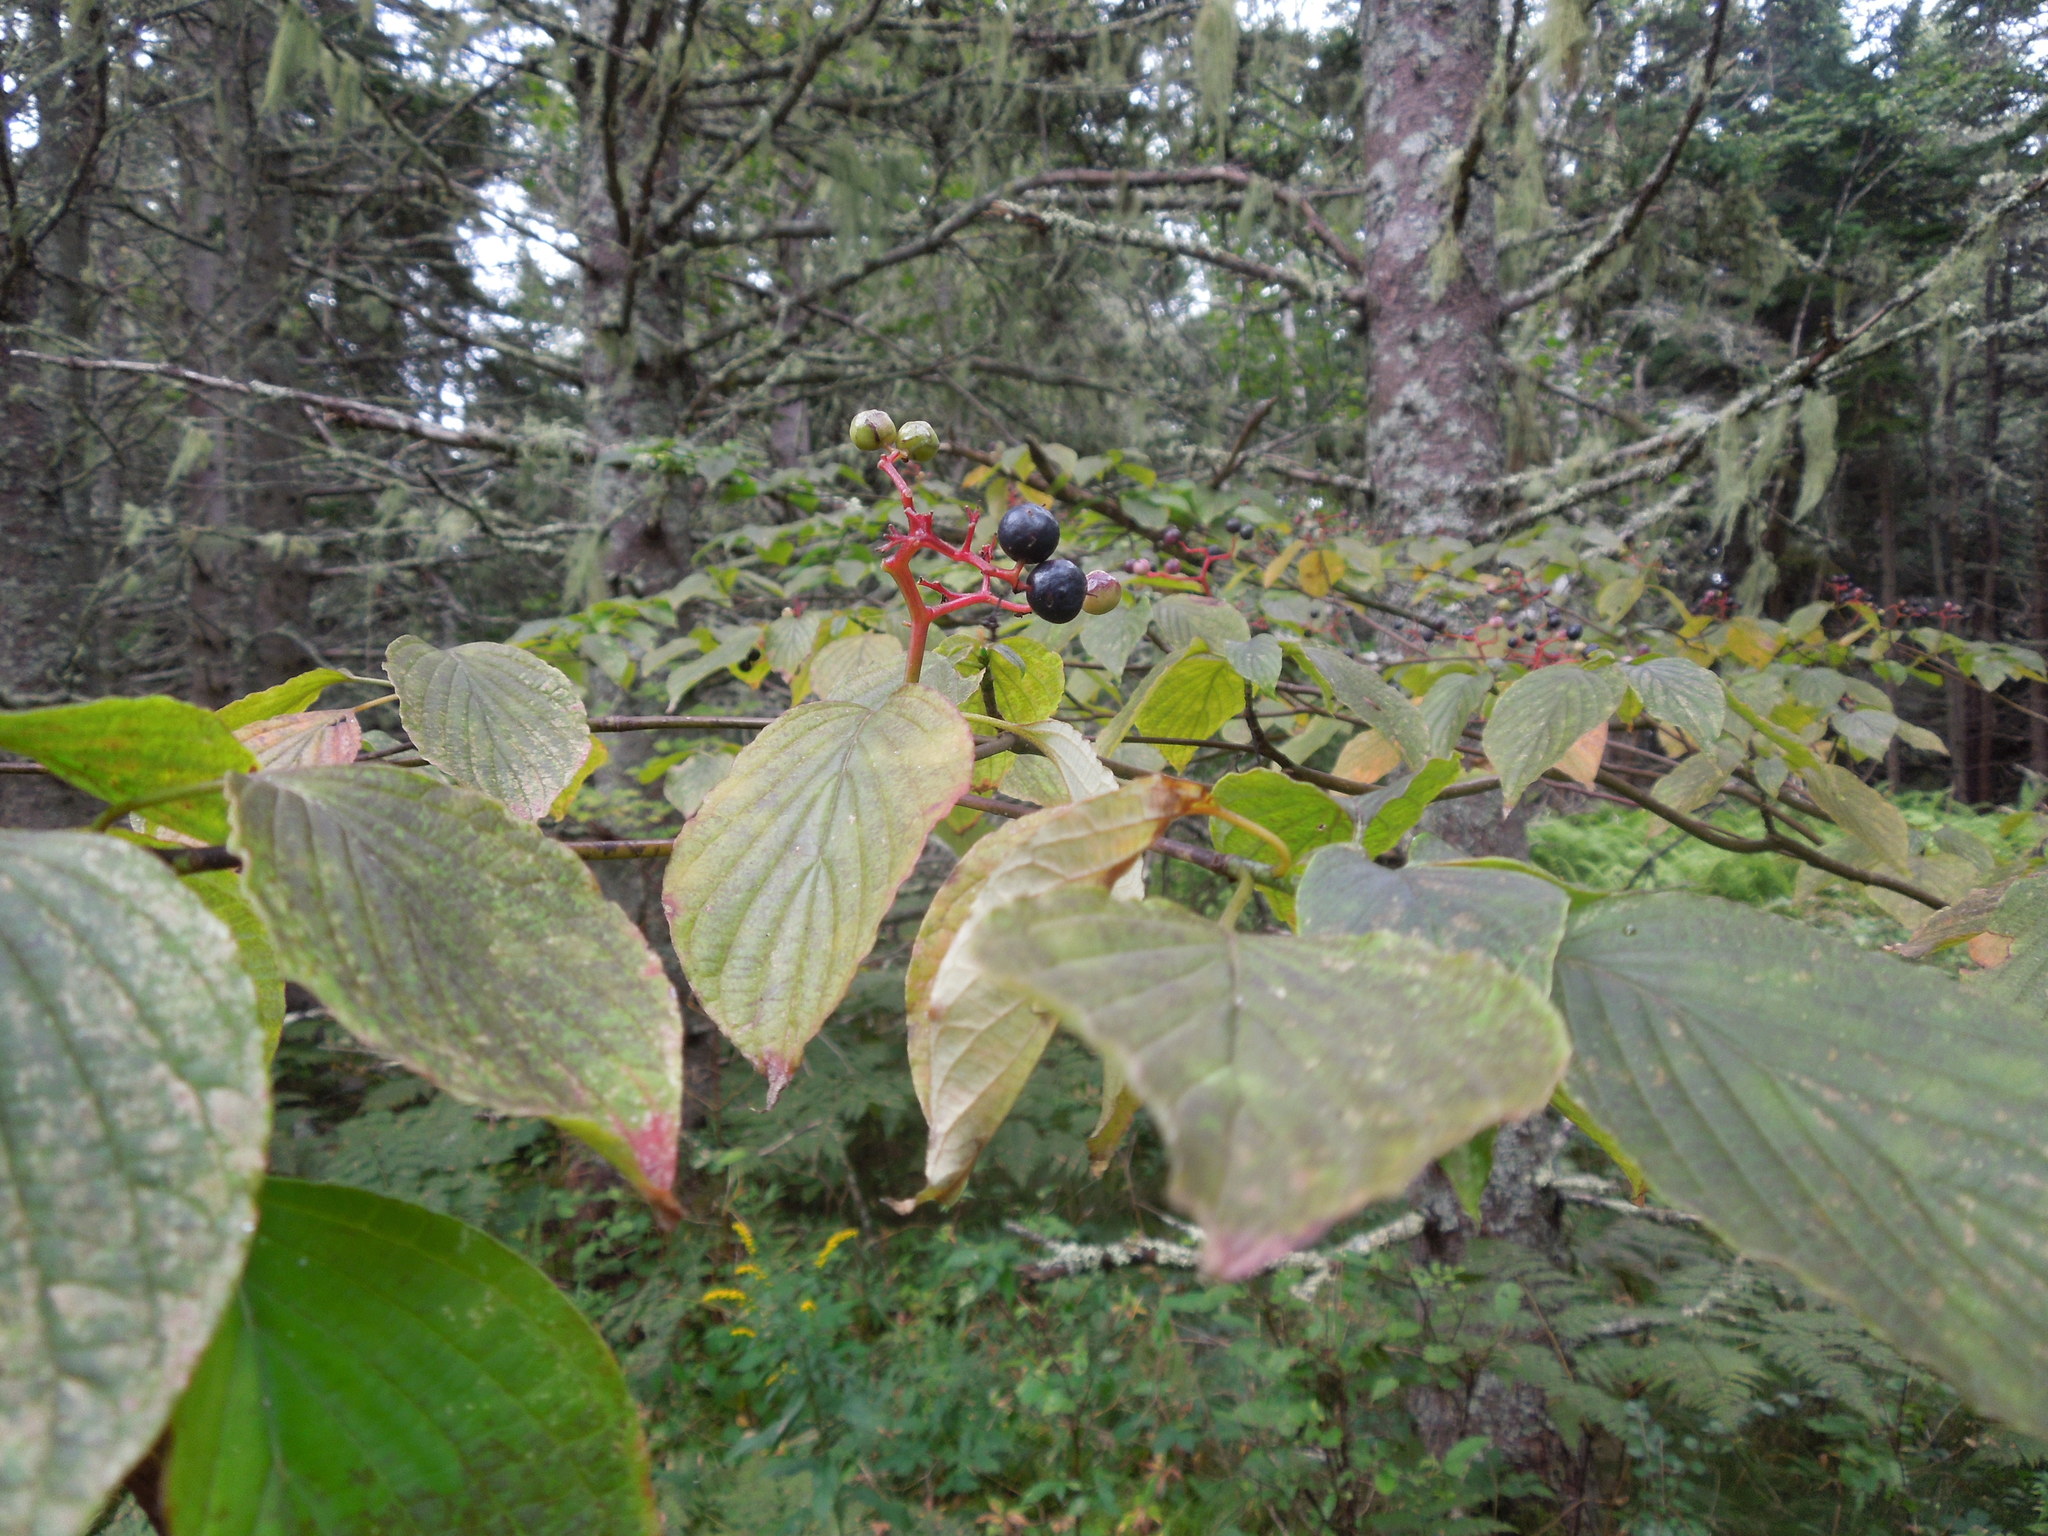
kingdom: Plantae
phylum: Tracheophyta
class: Magnoliopsida
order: Cornales
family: Cornaceae
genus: Cornus
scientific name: Cornus alternifolia
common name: Pagoda dogwood
